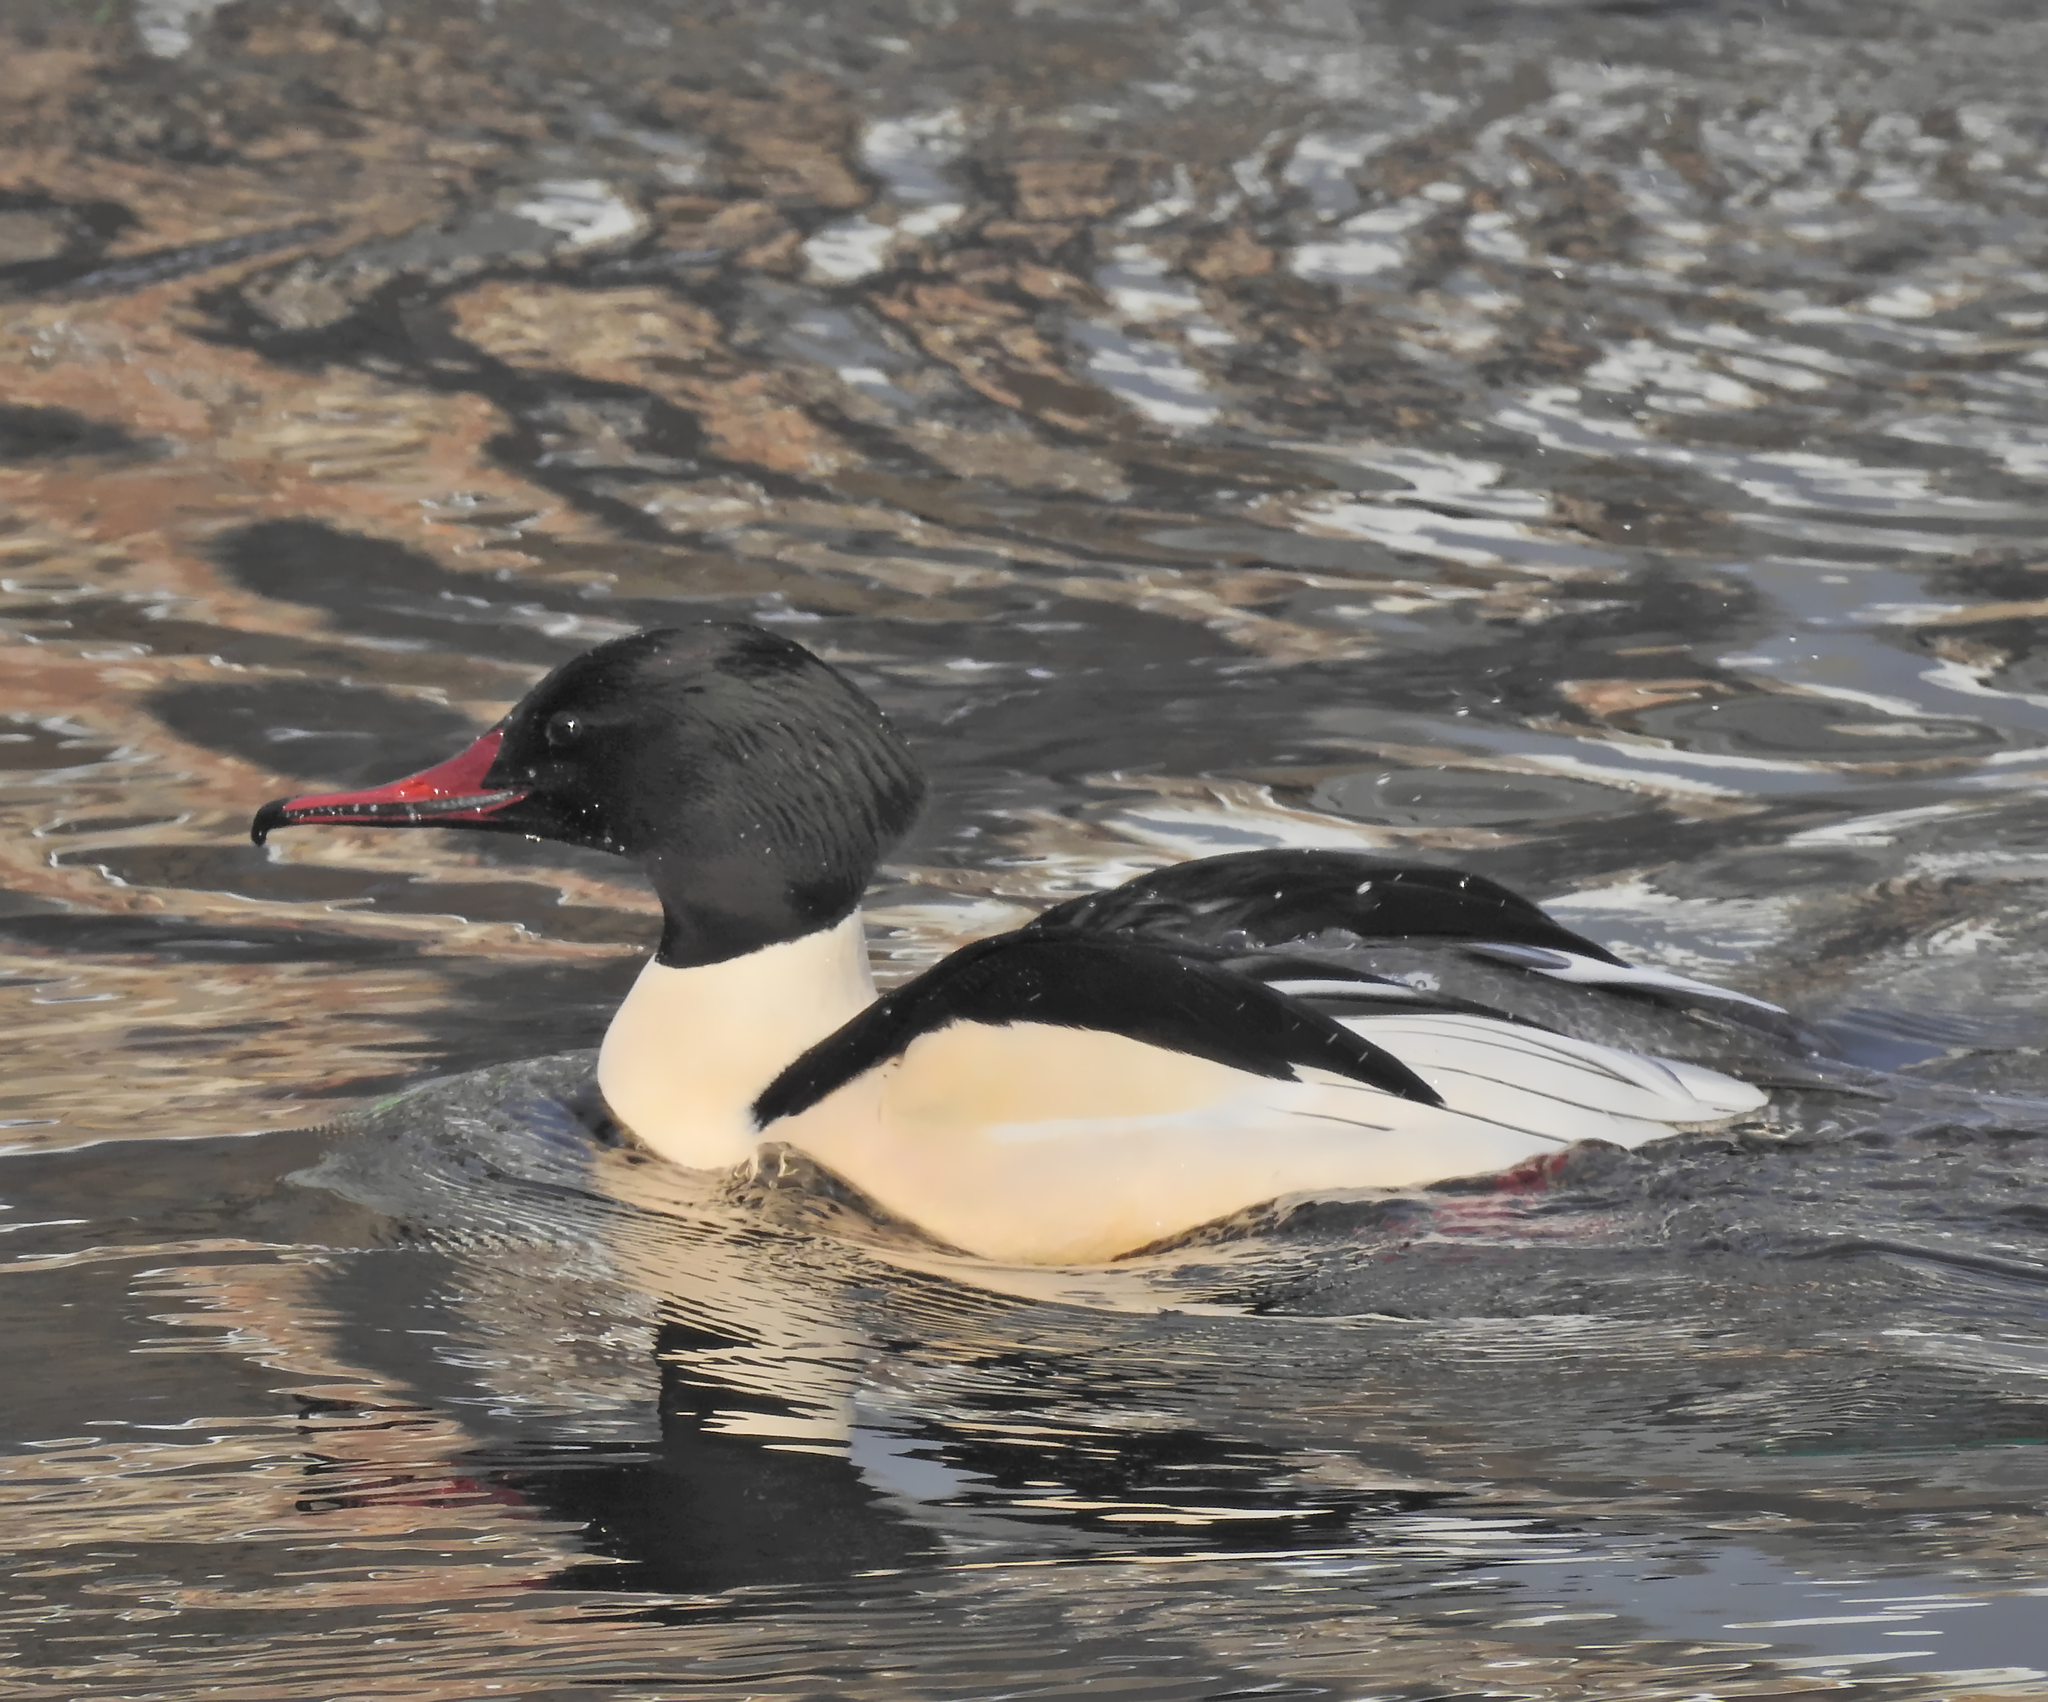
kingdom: Animalia
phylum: Chordata
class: Aves
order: Anseriformes
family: Anatidae
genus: Mergus
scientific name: Mergus merganser
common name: Common merganser
